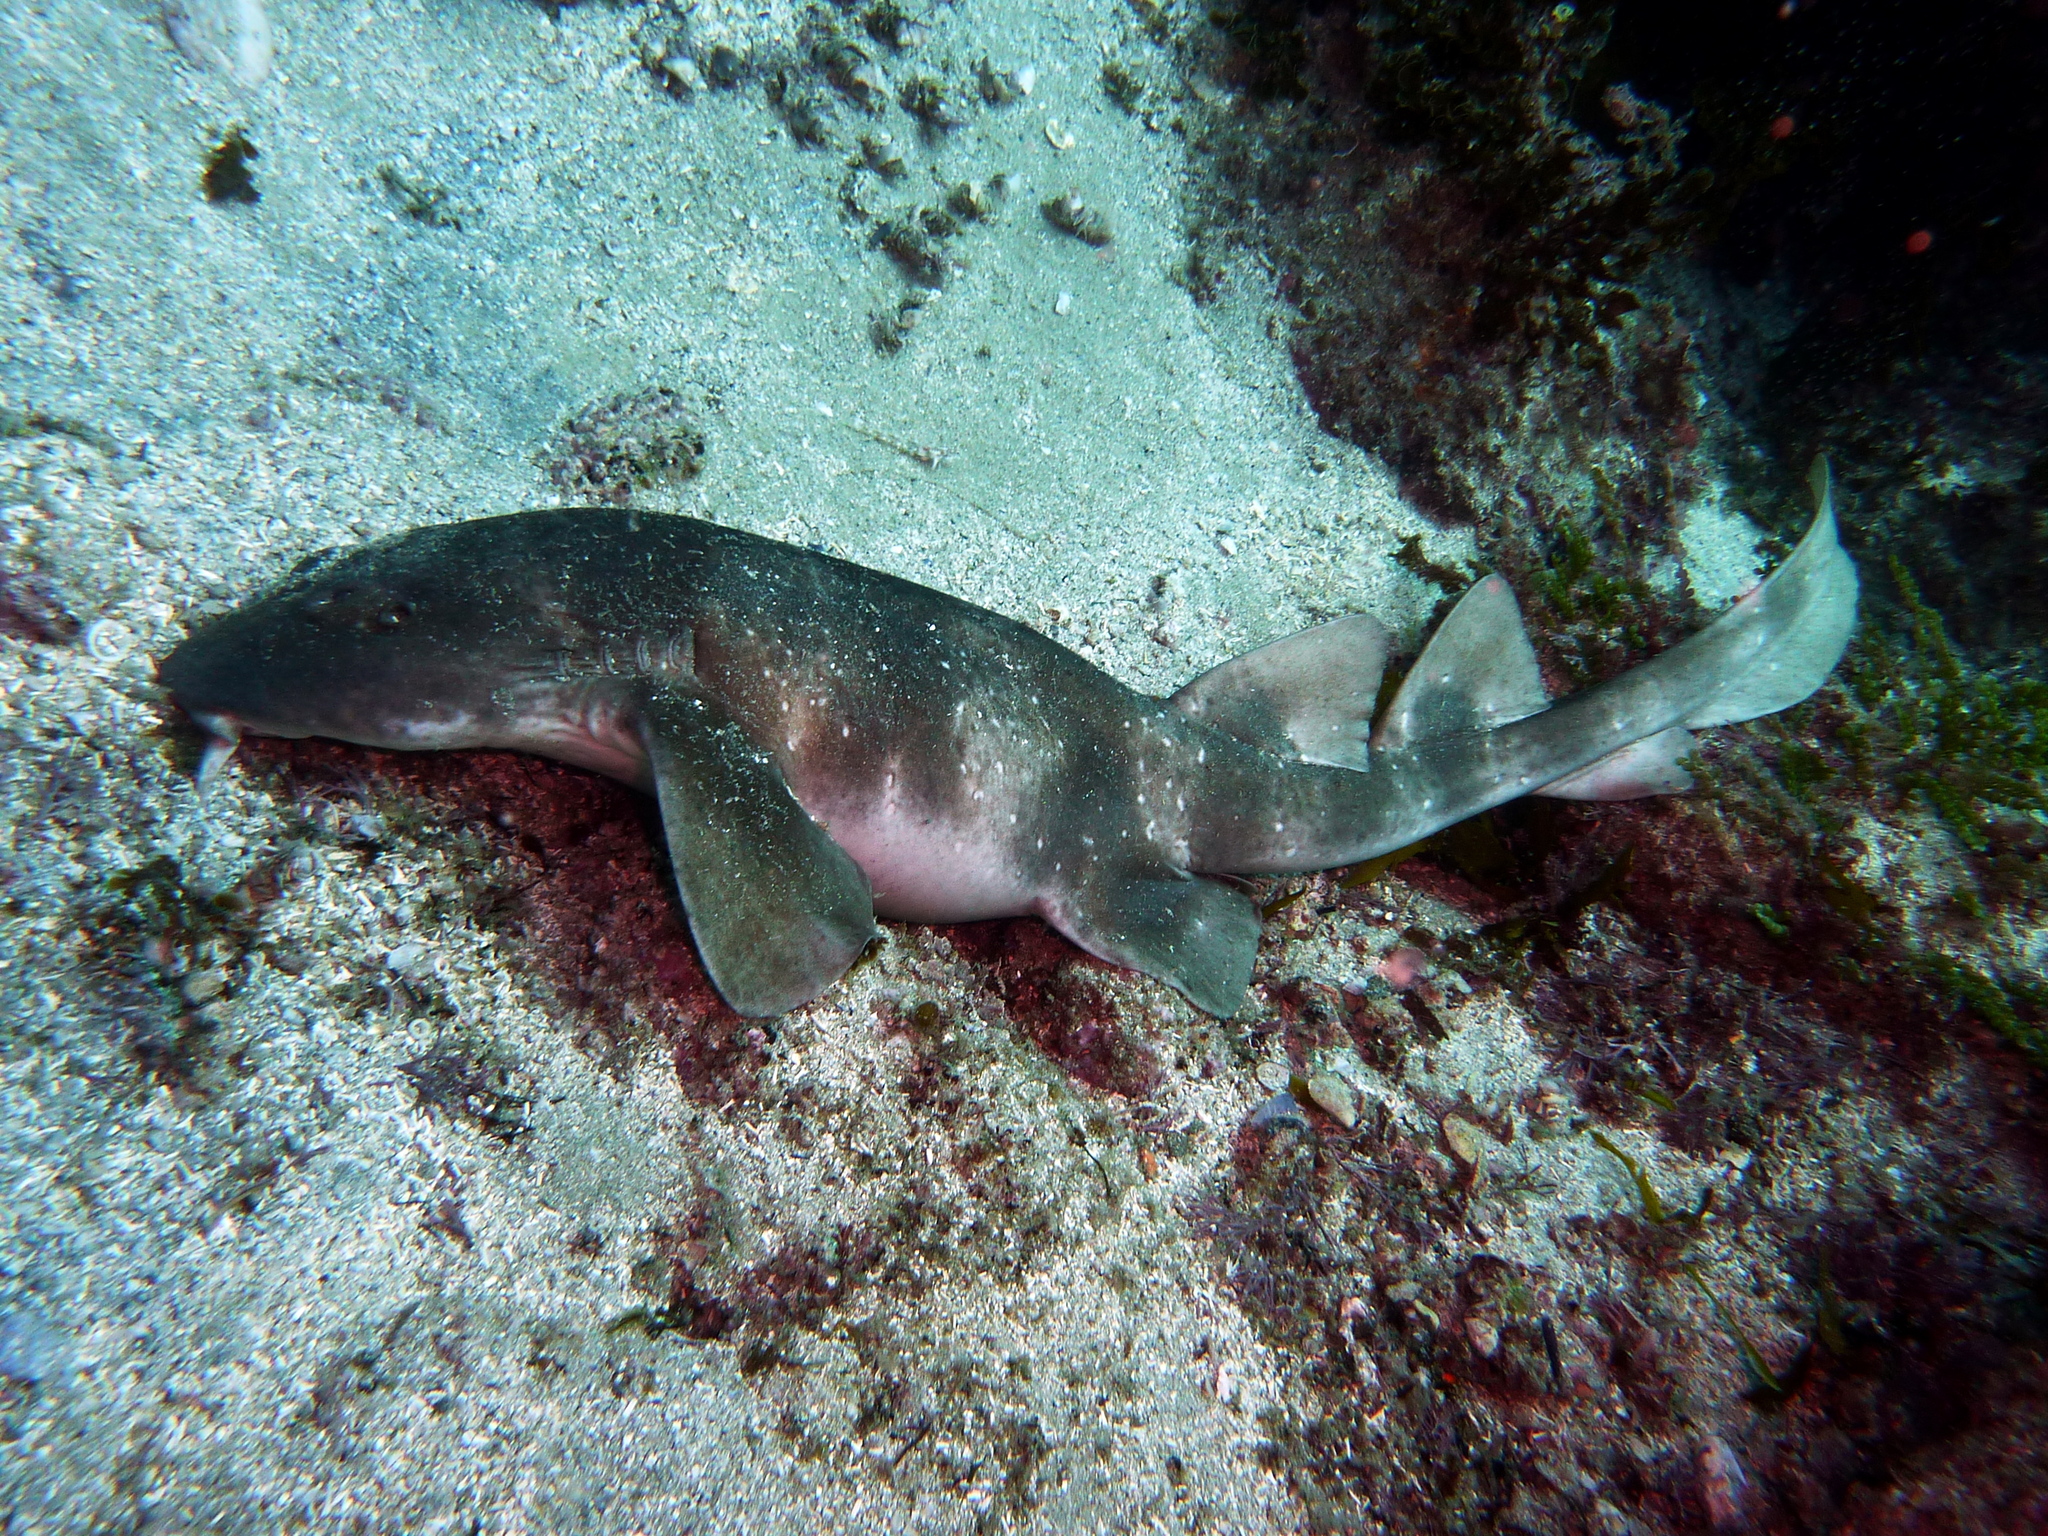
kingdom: Animalia
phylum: Chordata
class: Elasmobranchii
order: Orectolobiformes
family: Brachaeluridae
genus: Brachaelurus
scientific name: Brachaelurus waddi
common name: Blind shark
